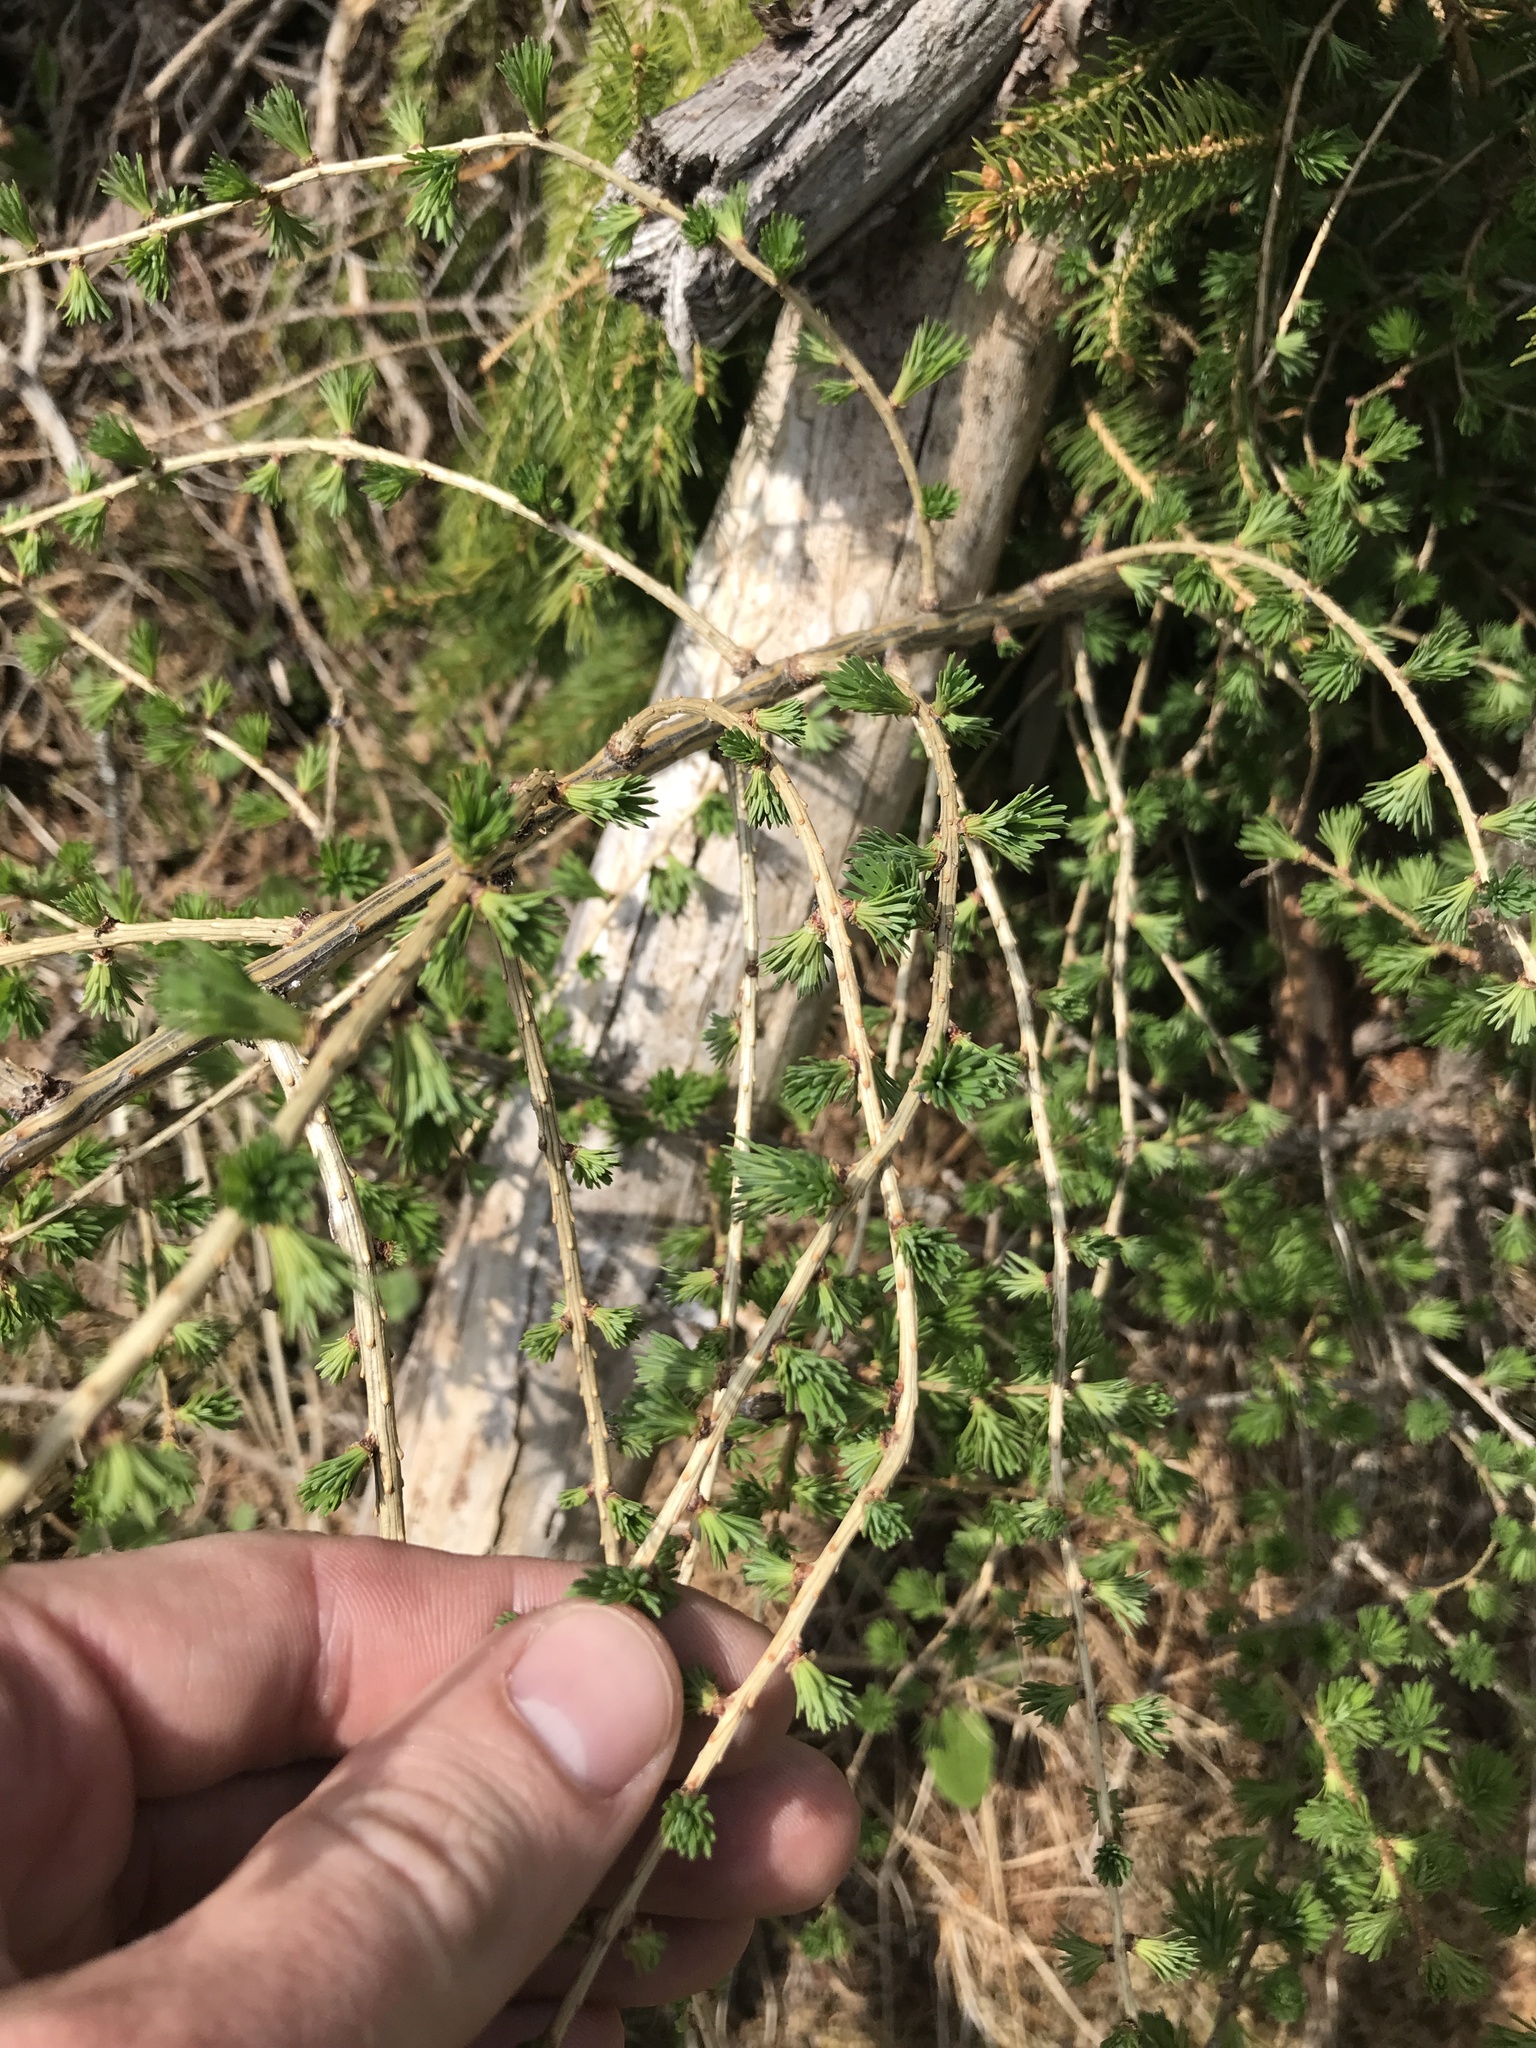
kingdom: Plantae
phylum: Tracheophyta
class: Pinopsida
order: Pinales
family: Pinaceae
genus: Larix
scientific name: Larix decidua
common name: European larch
